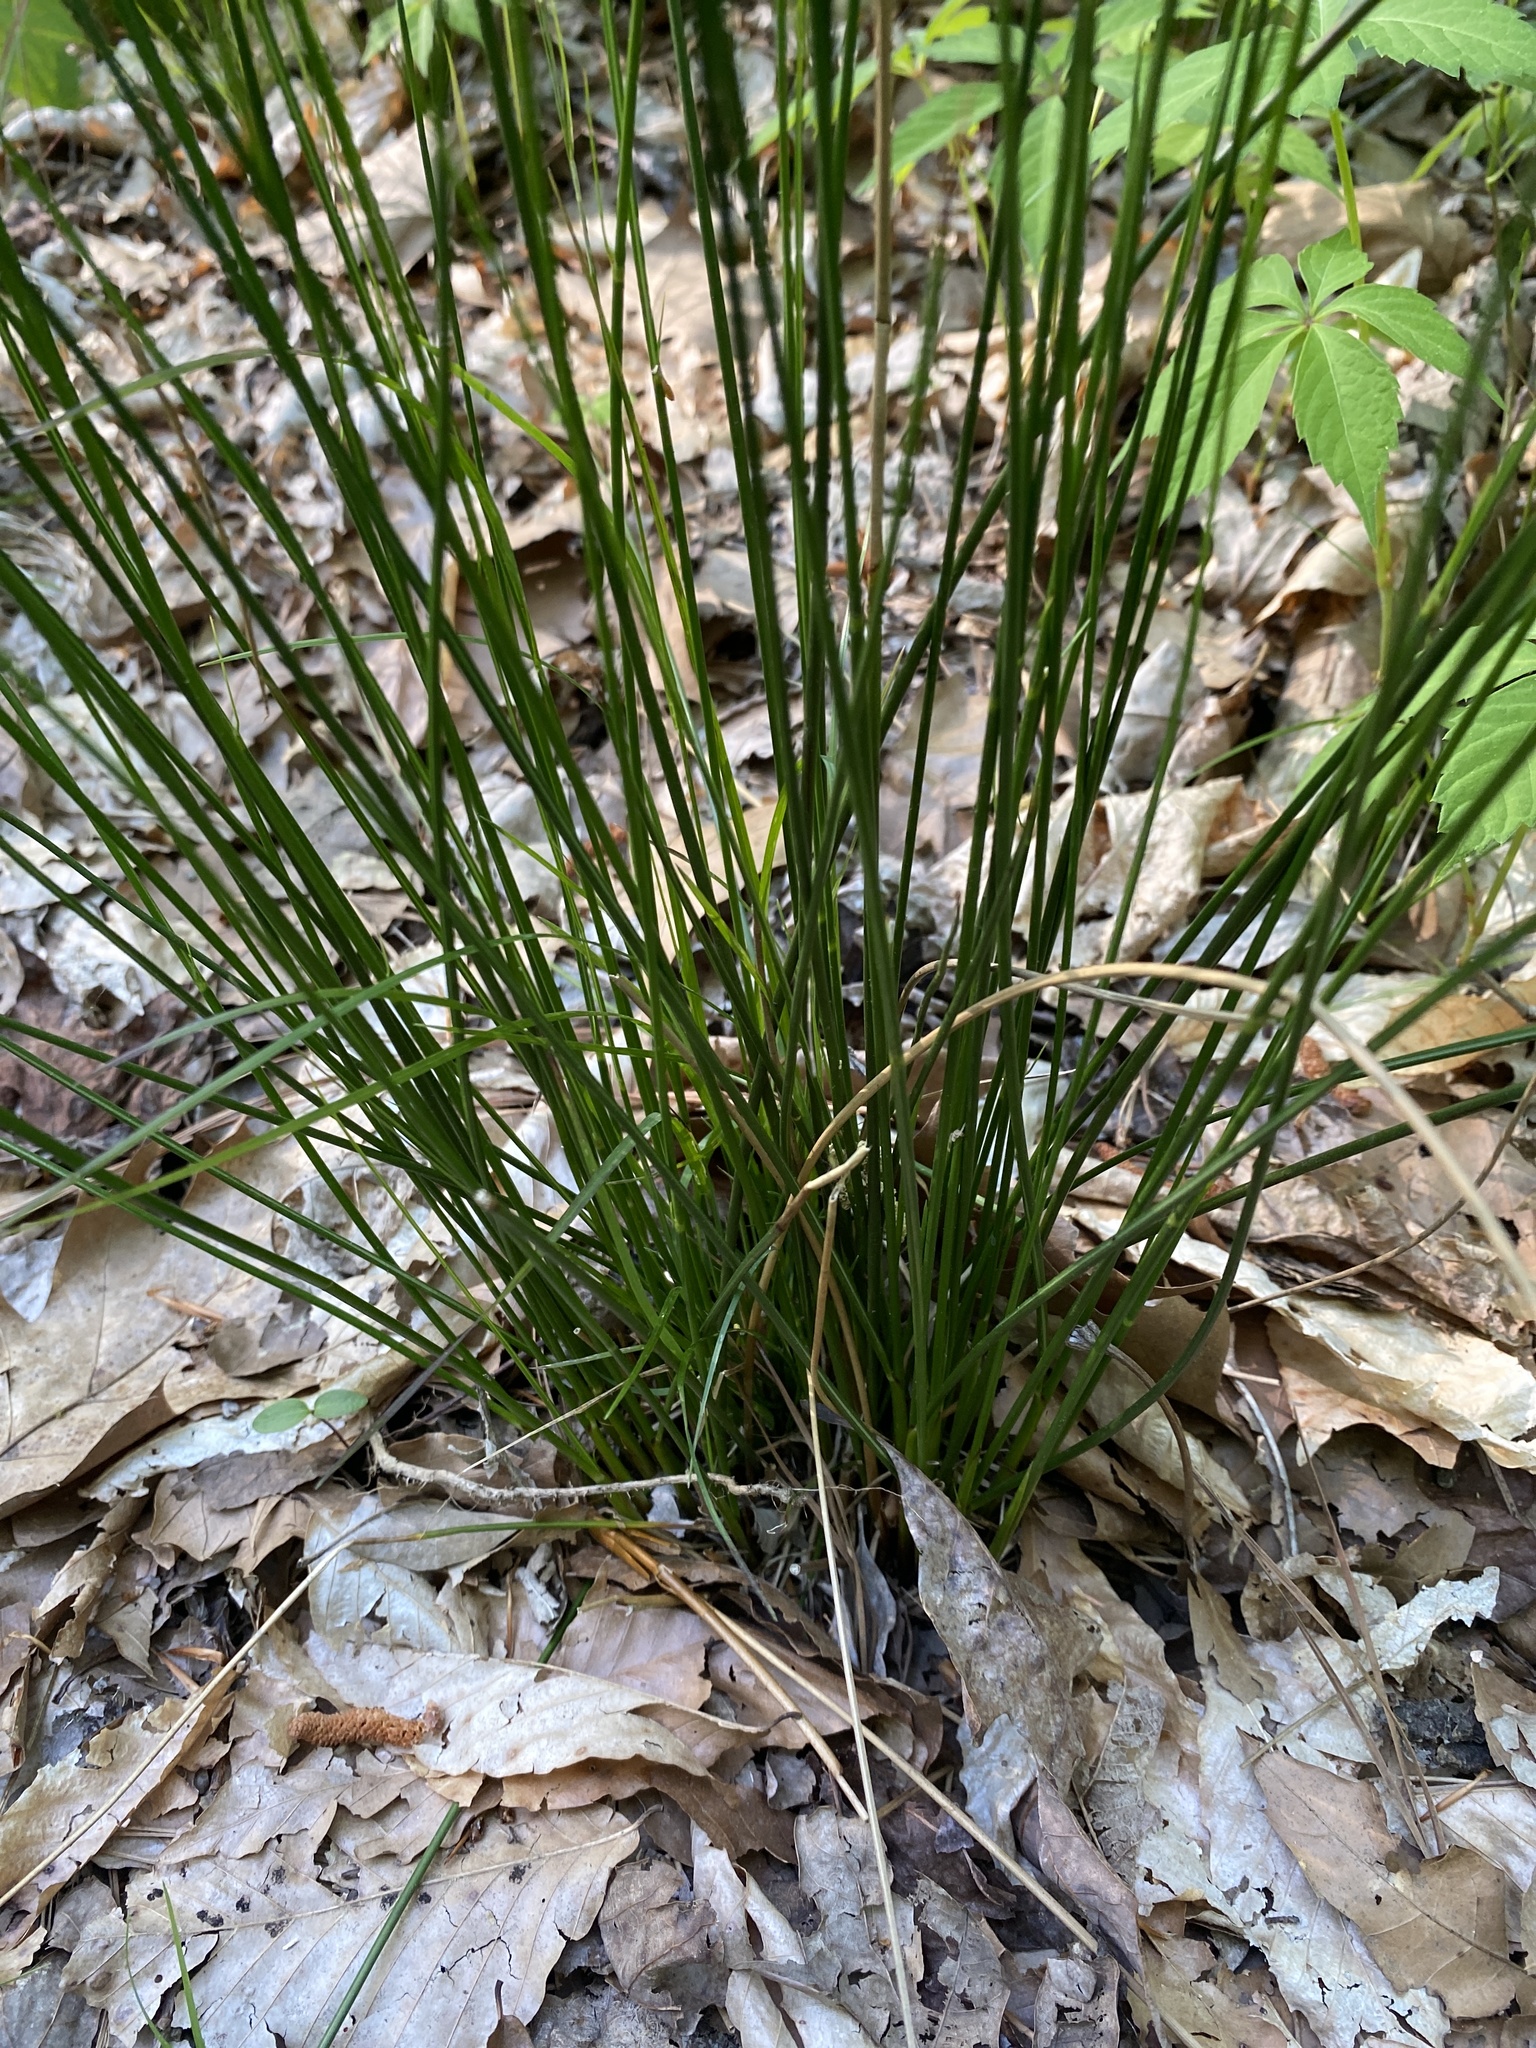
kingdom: Plantae
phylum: Tracheophyta
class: Liliopsida
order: Poales
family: Juncaceae
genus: Juncus
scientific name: Juncus coriaceus
